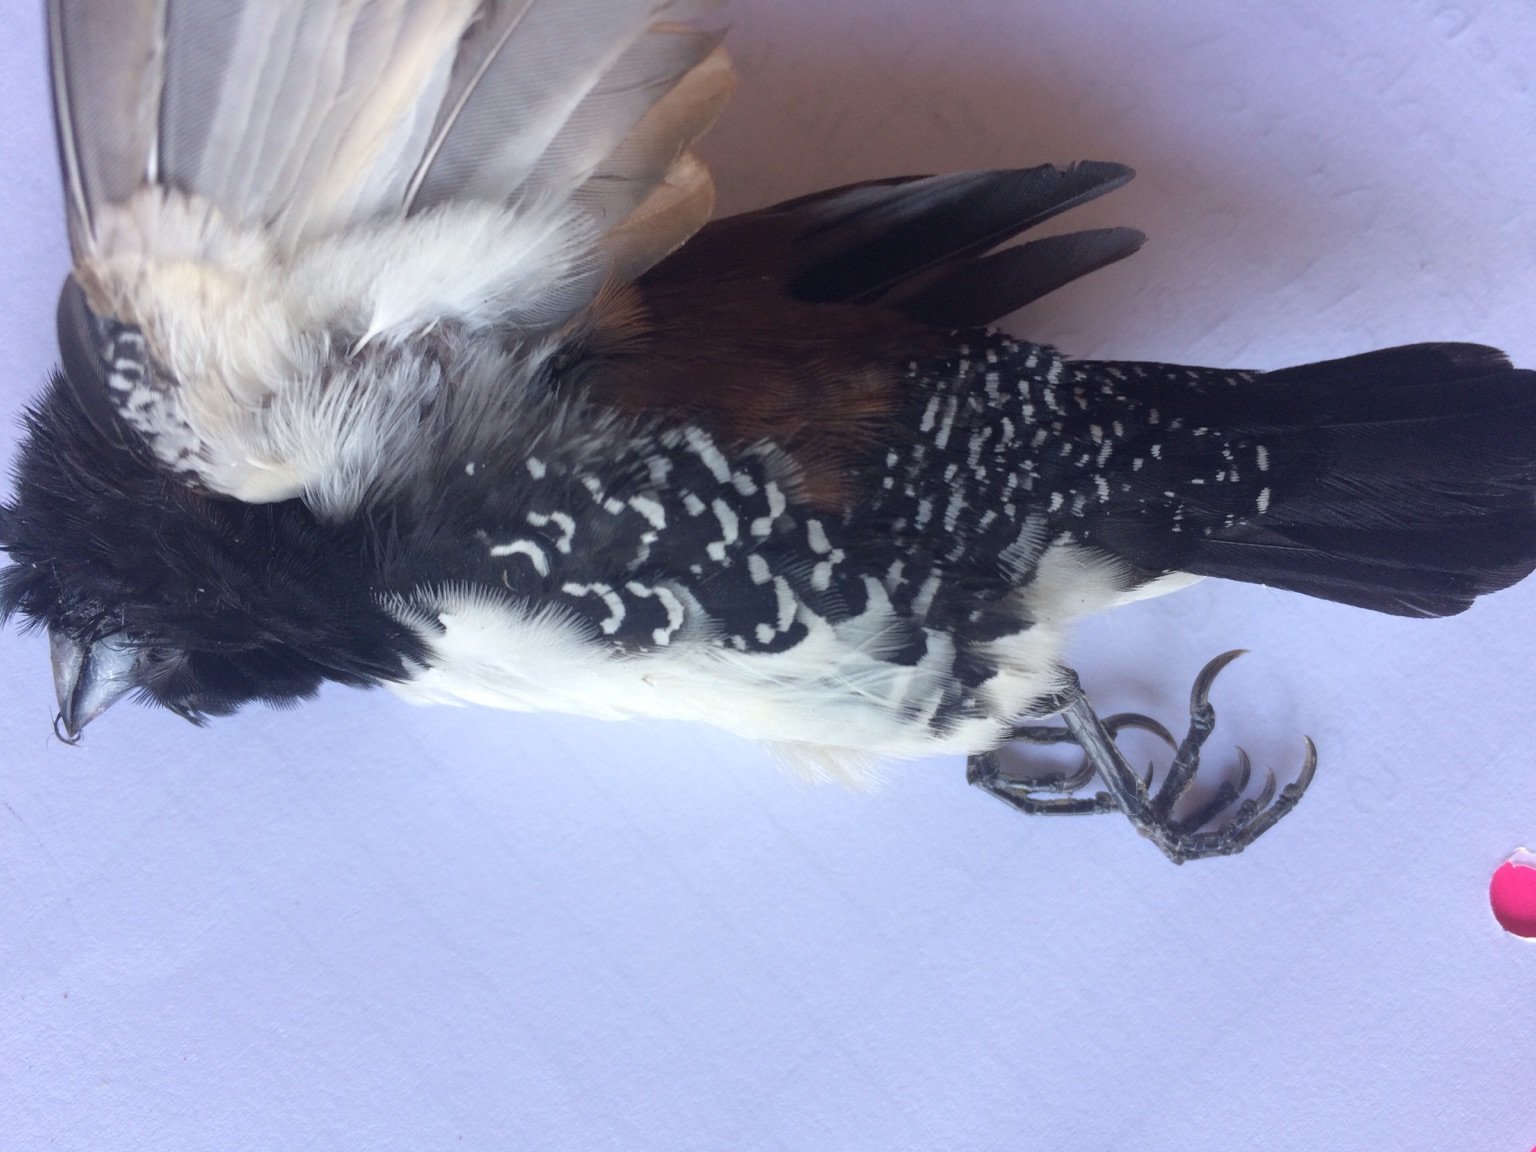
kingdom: Animalia
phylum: Chordata
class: Aves
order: Passeriformes
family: Estrildidae
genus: Lonchura
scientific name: Lonchura nigriceps
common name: Red-backed mannikin
